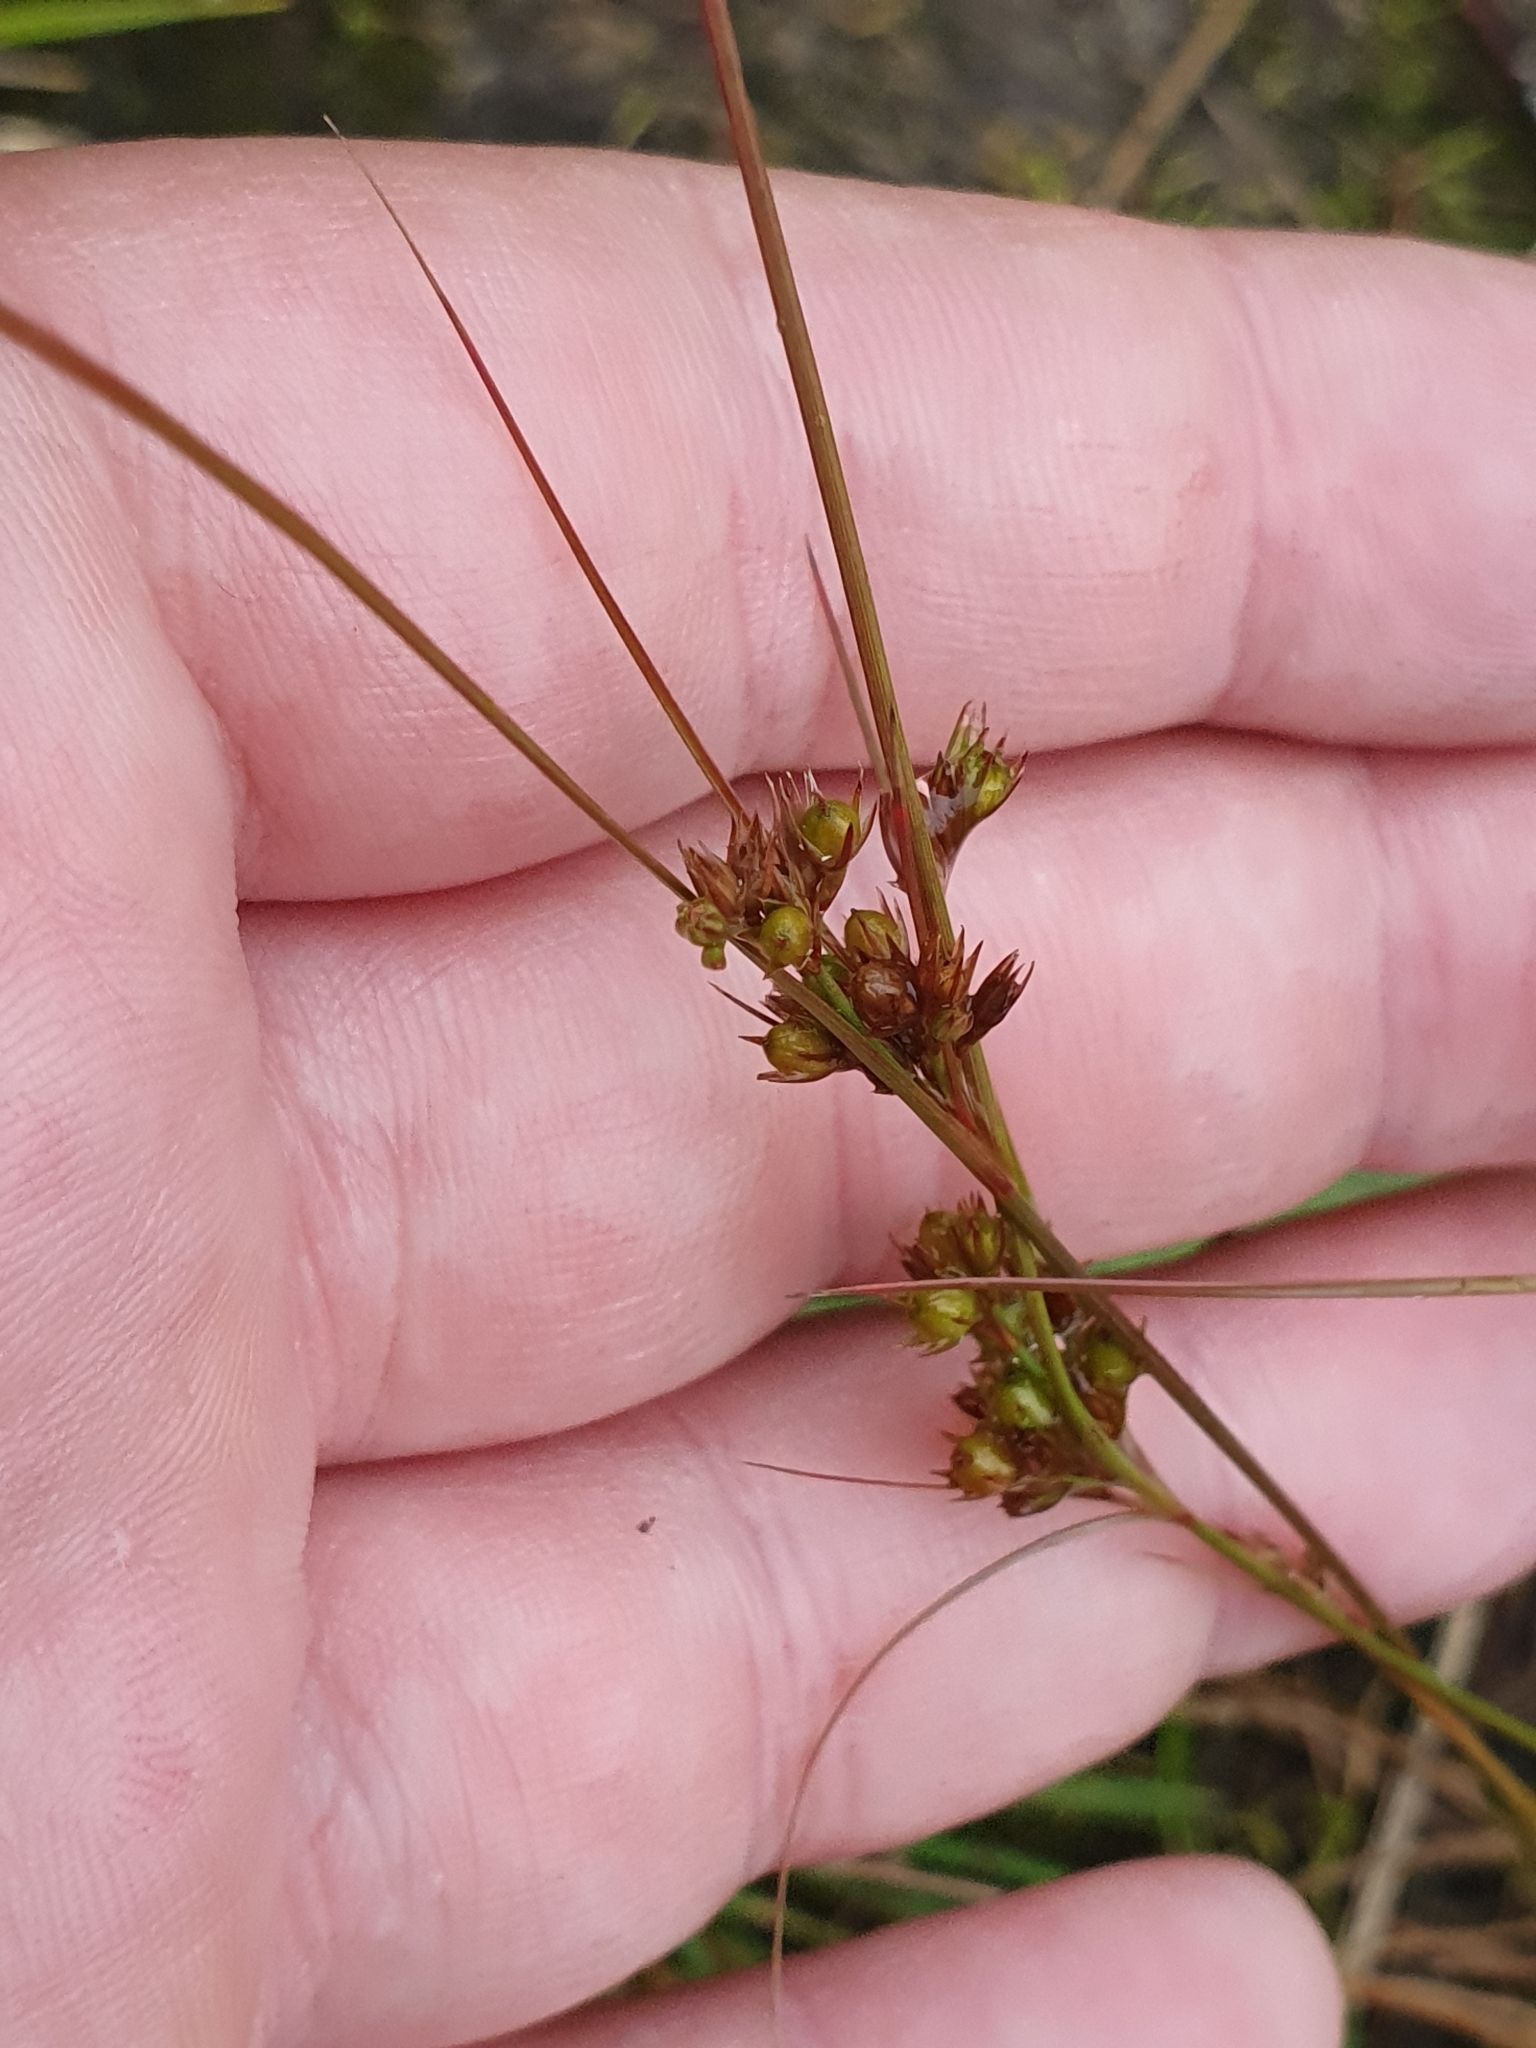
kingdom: Plantae
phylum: Tracheophyta
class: Liliopsida
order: Poales
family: Juncaceae
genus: Juncus
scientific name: Juncus tenuis
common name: Slender rush
